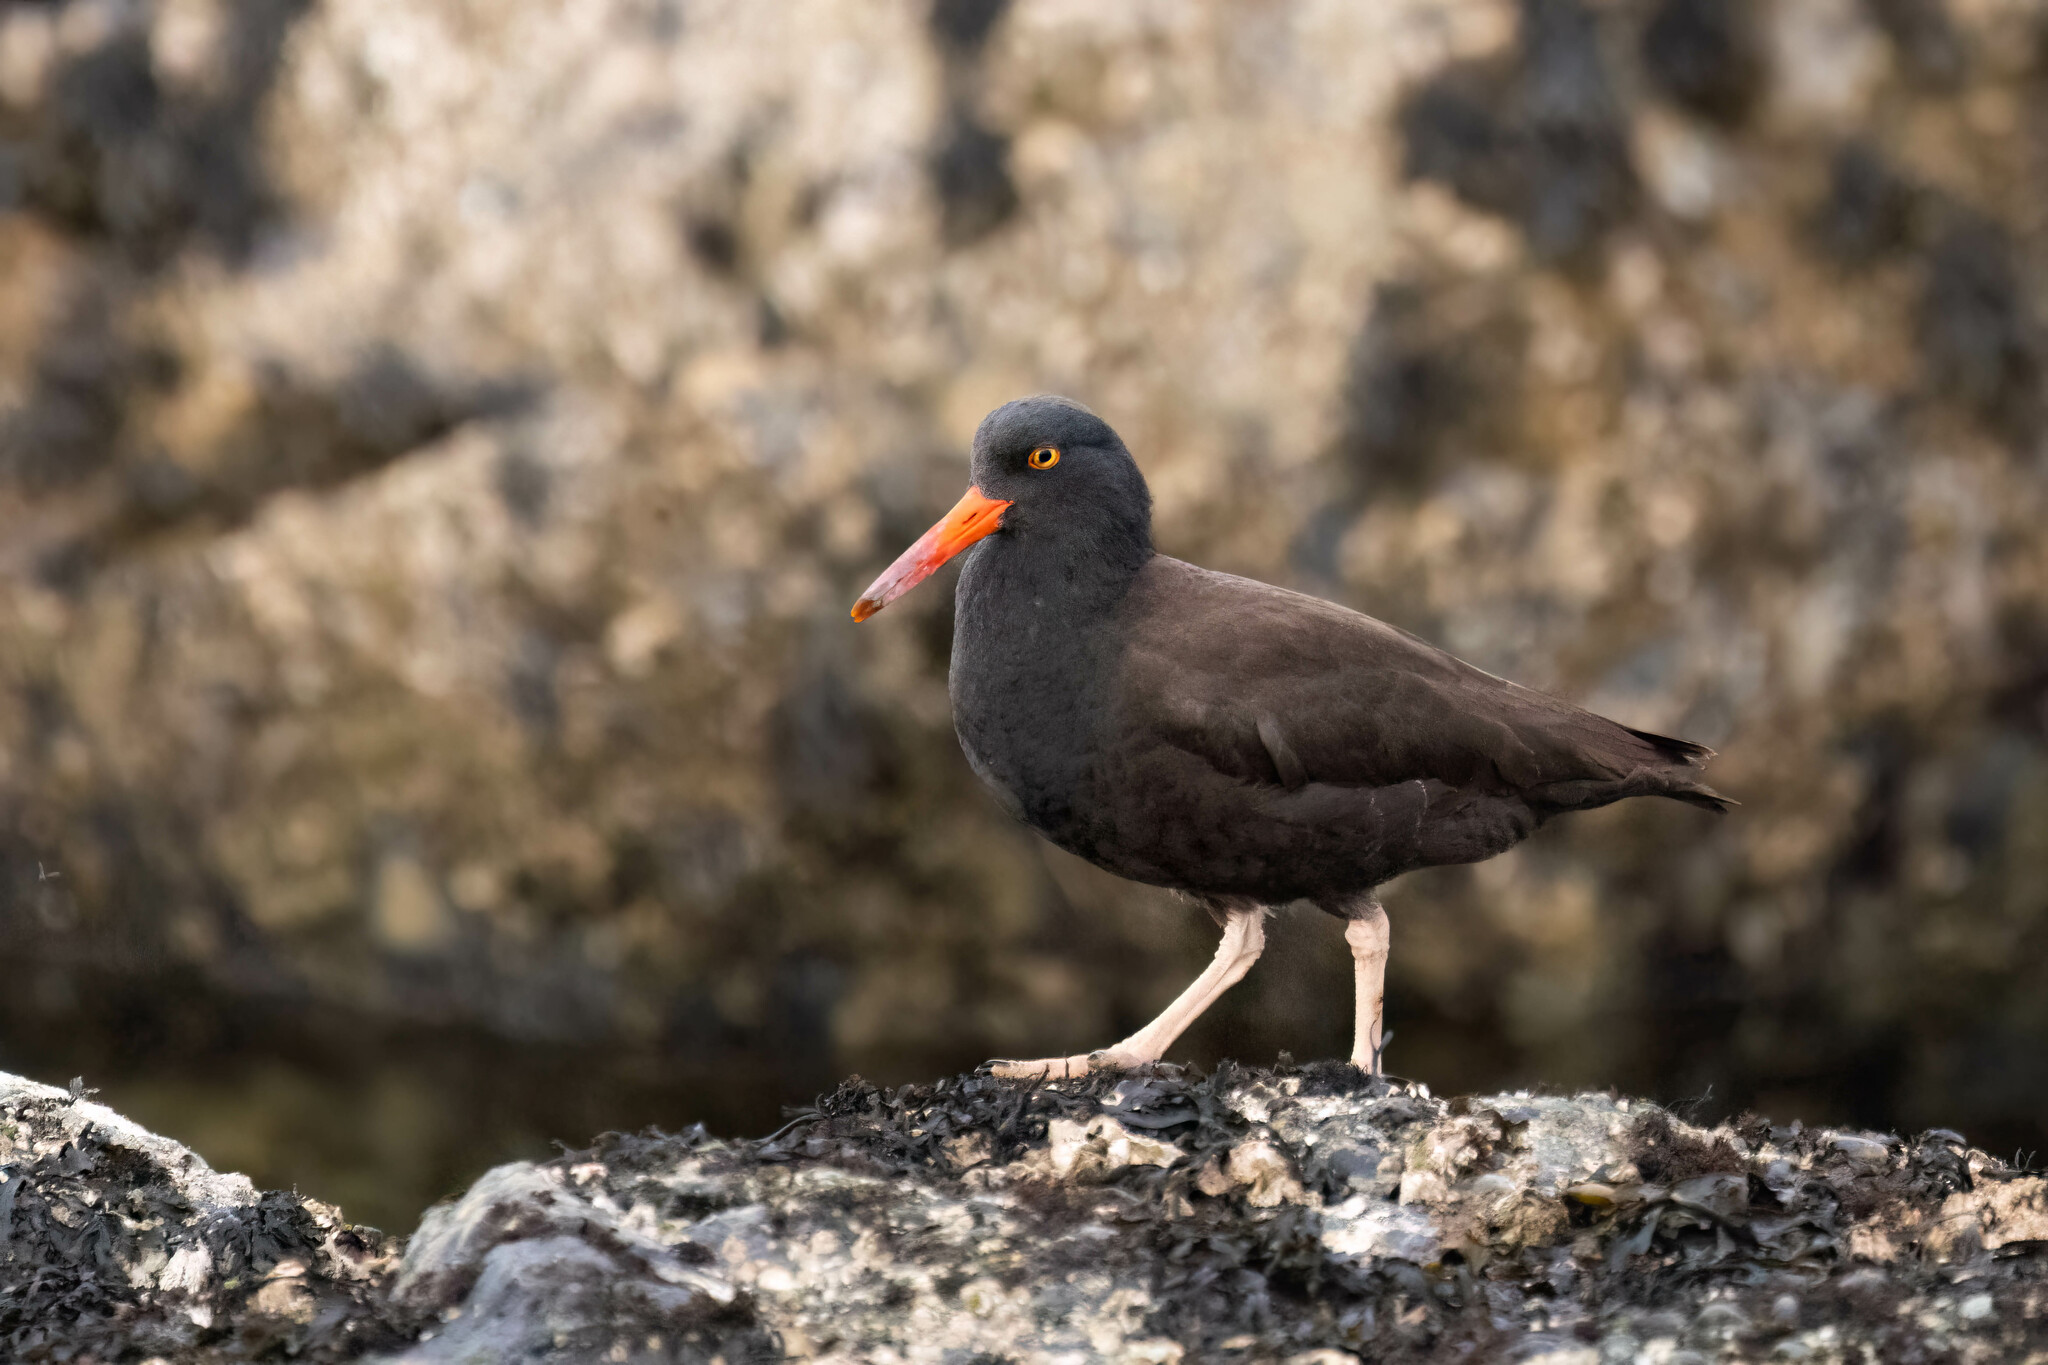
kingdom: Animalia
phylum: Chordata
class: Aves
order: Charadriiformes
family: Haematopodidae
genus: Haematopus
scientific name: Haematopus bachmani
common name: Black oystercatcher
